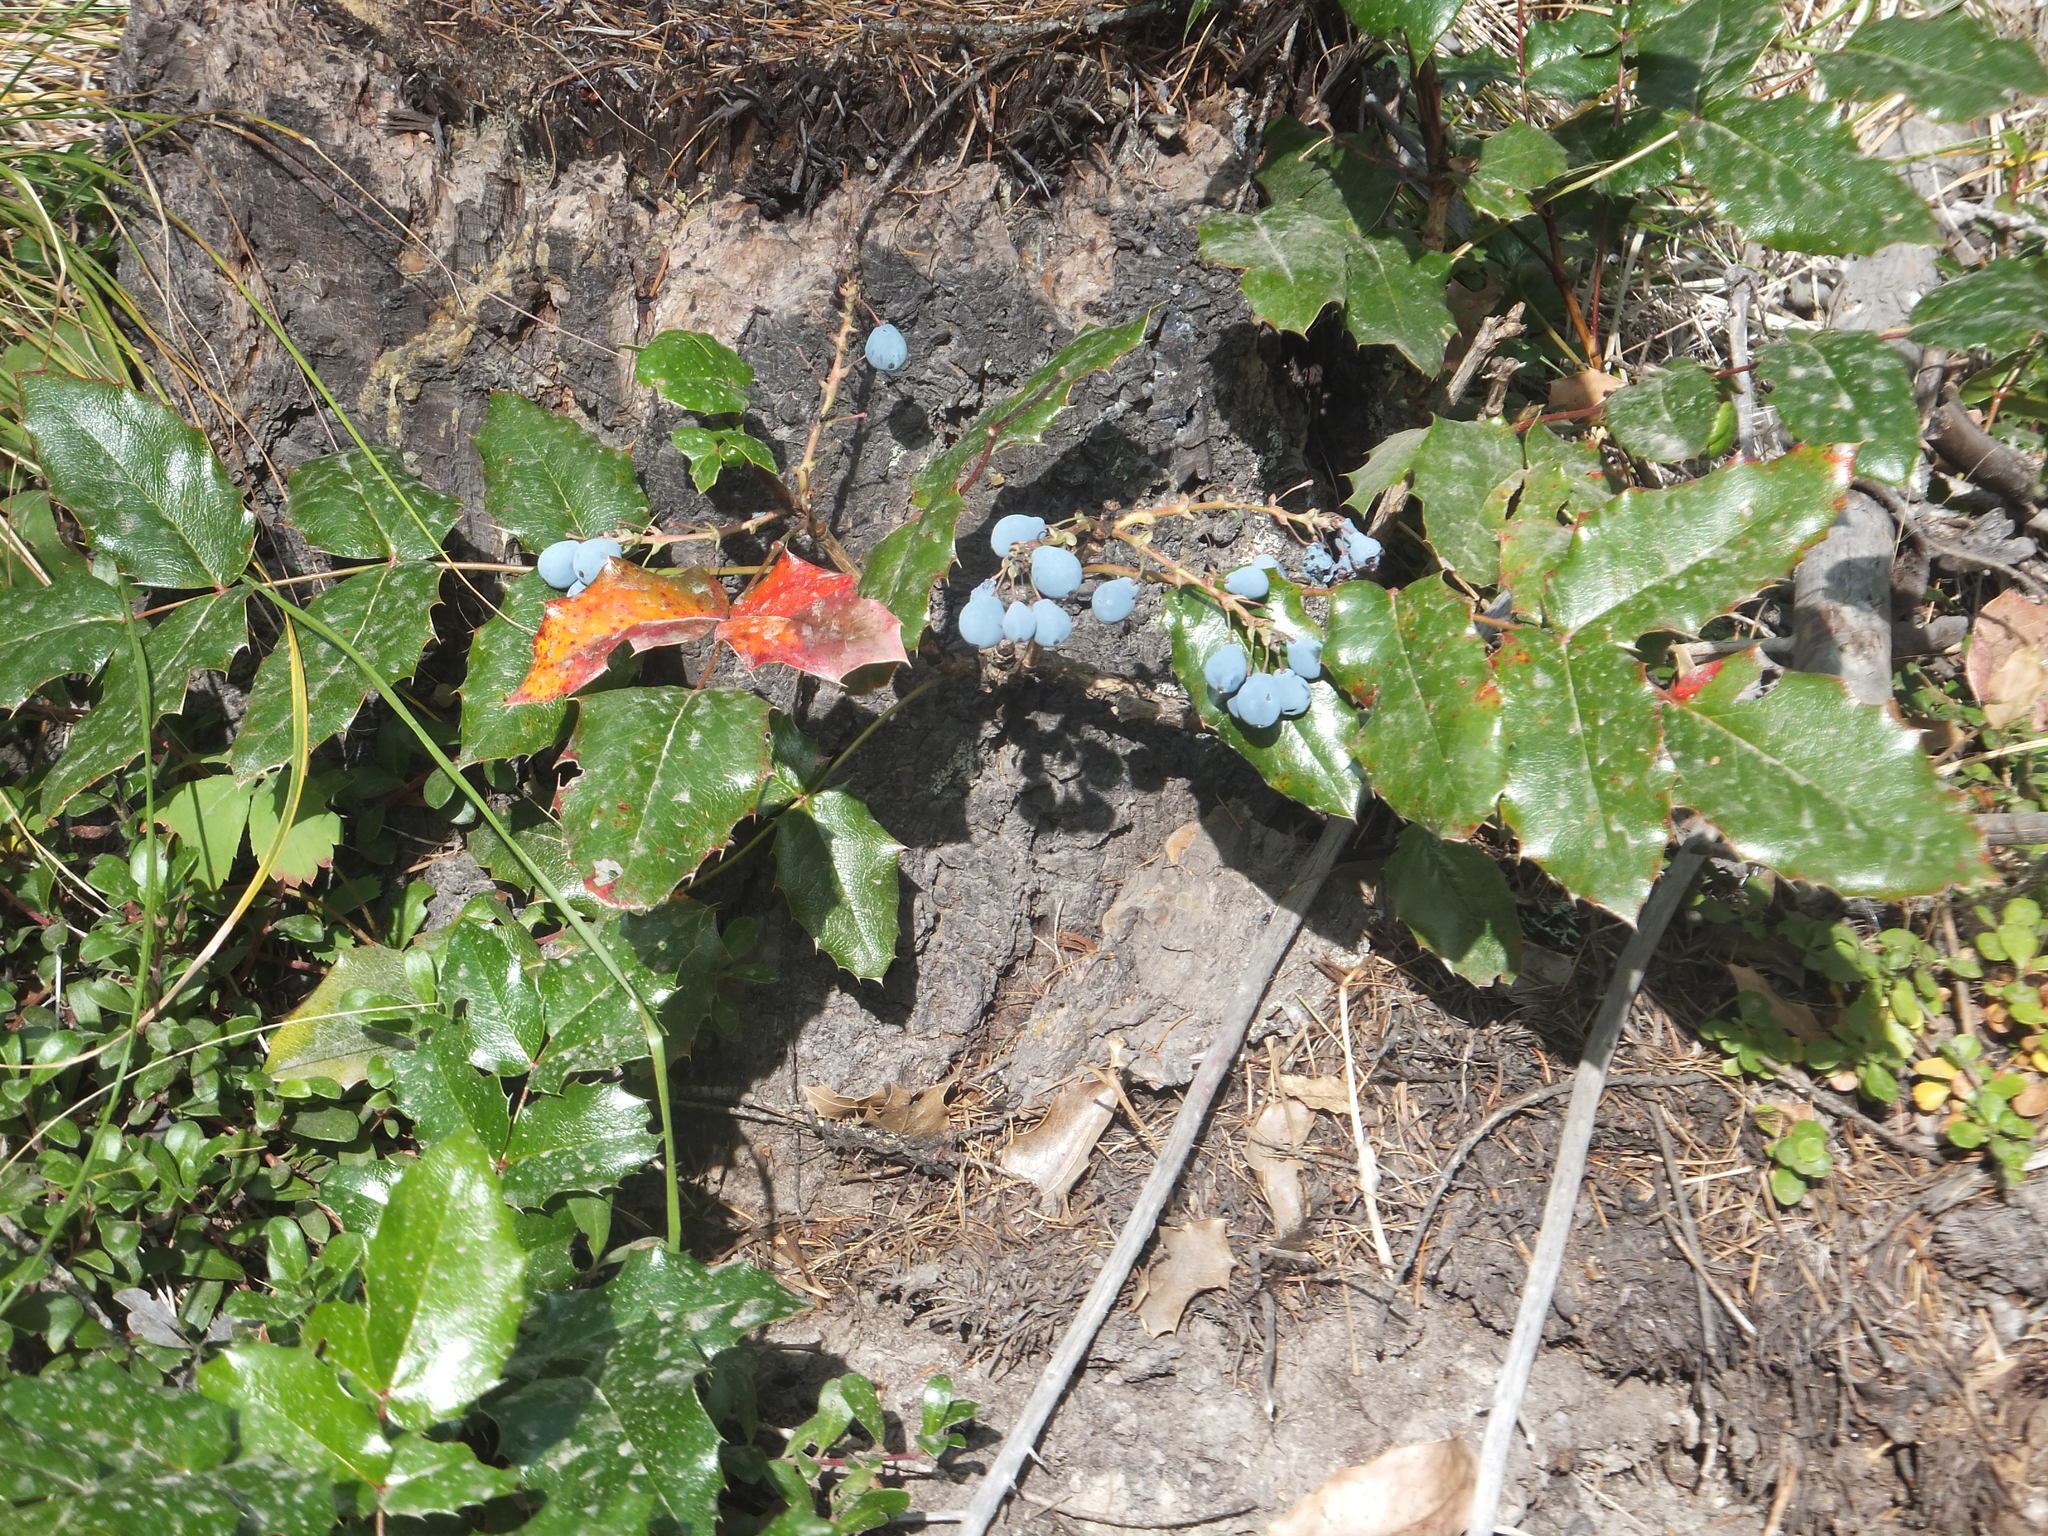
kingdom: Plantae
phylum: Tracheophyta
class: Magnoliopsida
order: Ranunculales
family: Berberidaceae
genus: Mahonia
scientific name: Mahonia aquifolium
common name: Oregon-grape
